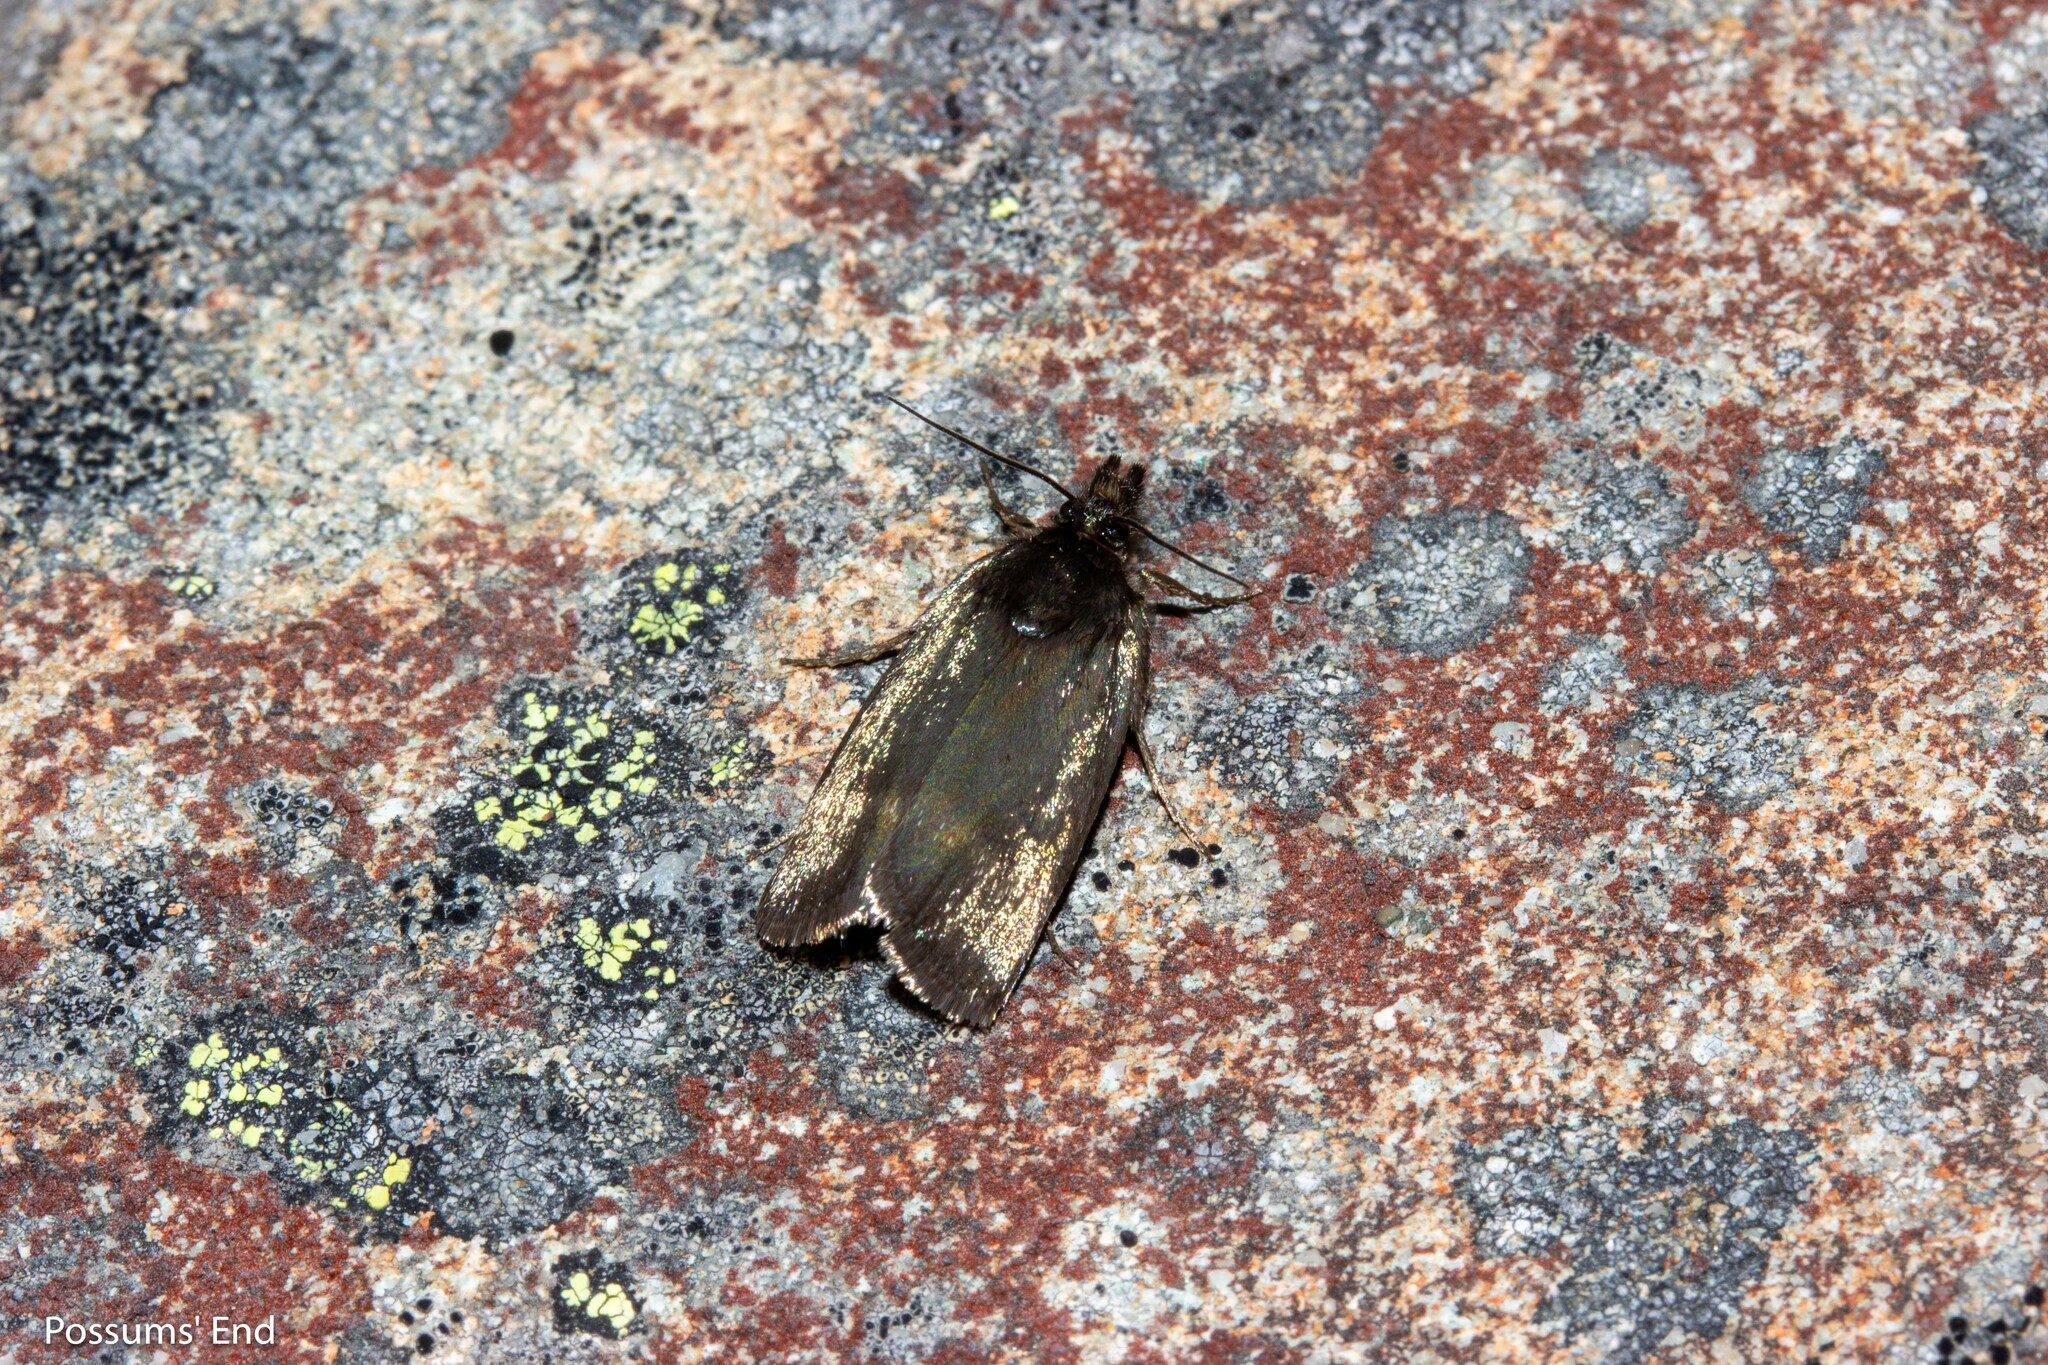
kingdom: Animalia
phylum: Arthropoda
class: Insecta
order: Lepidoptera
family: Crambidae
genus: Orocrambus
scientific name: Orocrambus melampetrus
